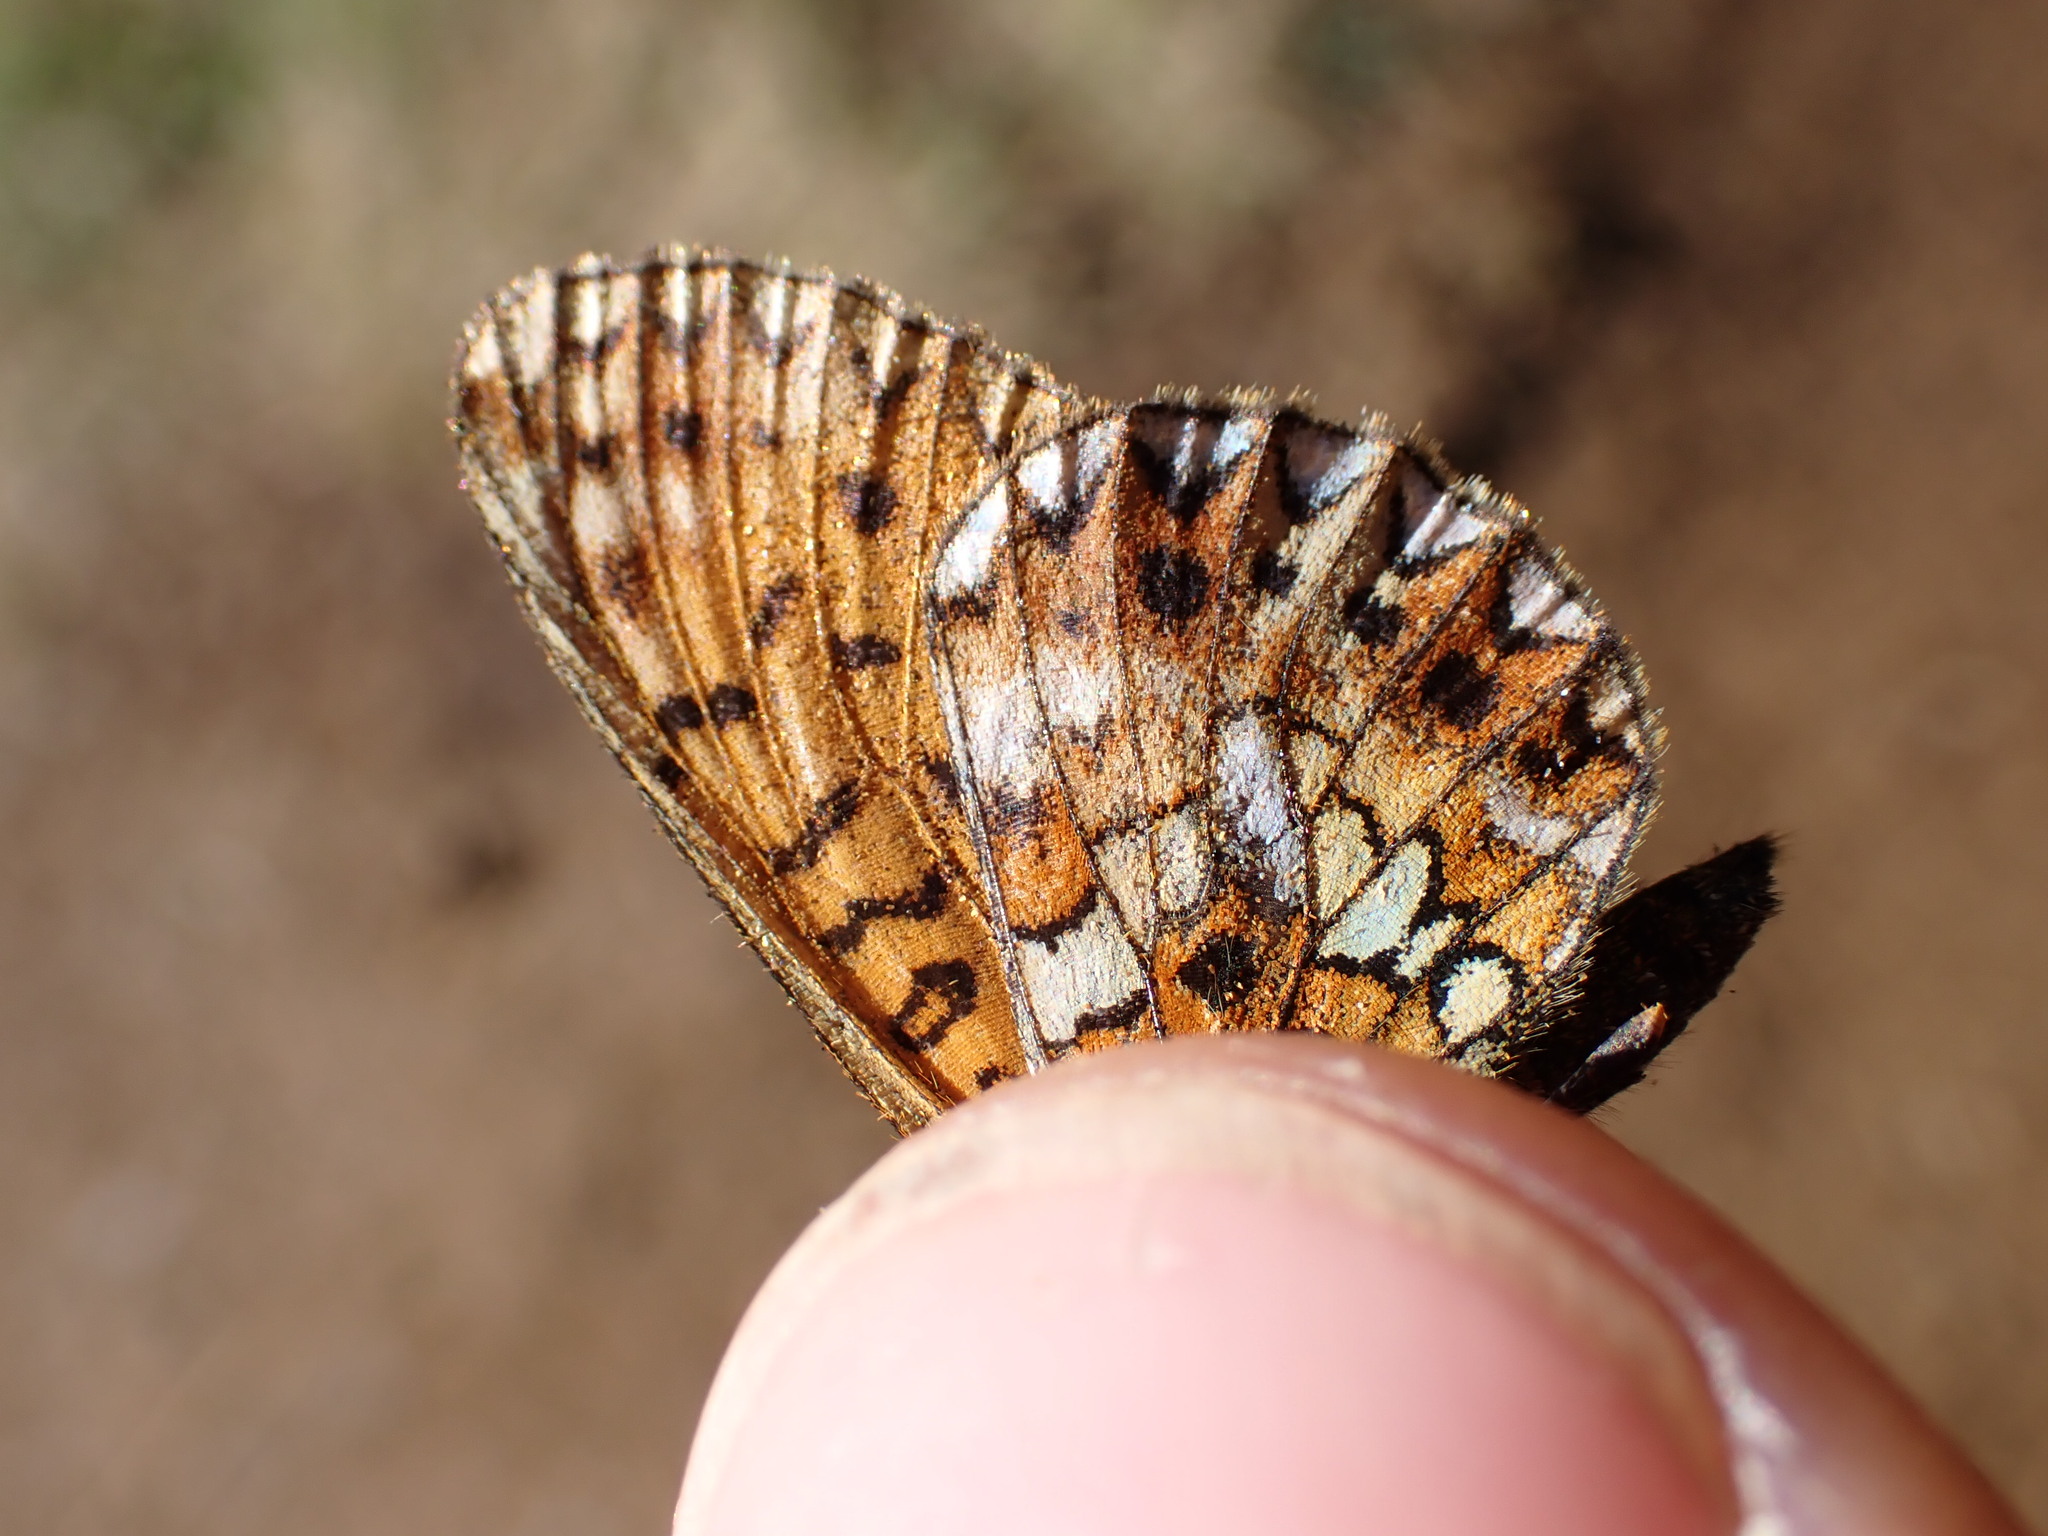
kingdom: Animalia
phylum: Arthropoda
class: Insecta
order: Lepidoptera
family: Nymphalidae
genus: Boloria
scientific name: Boloria selene
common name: Small pearl-bordered fritillary
